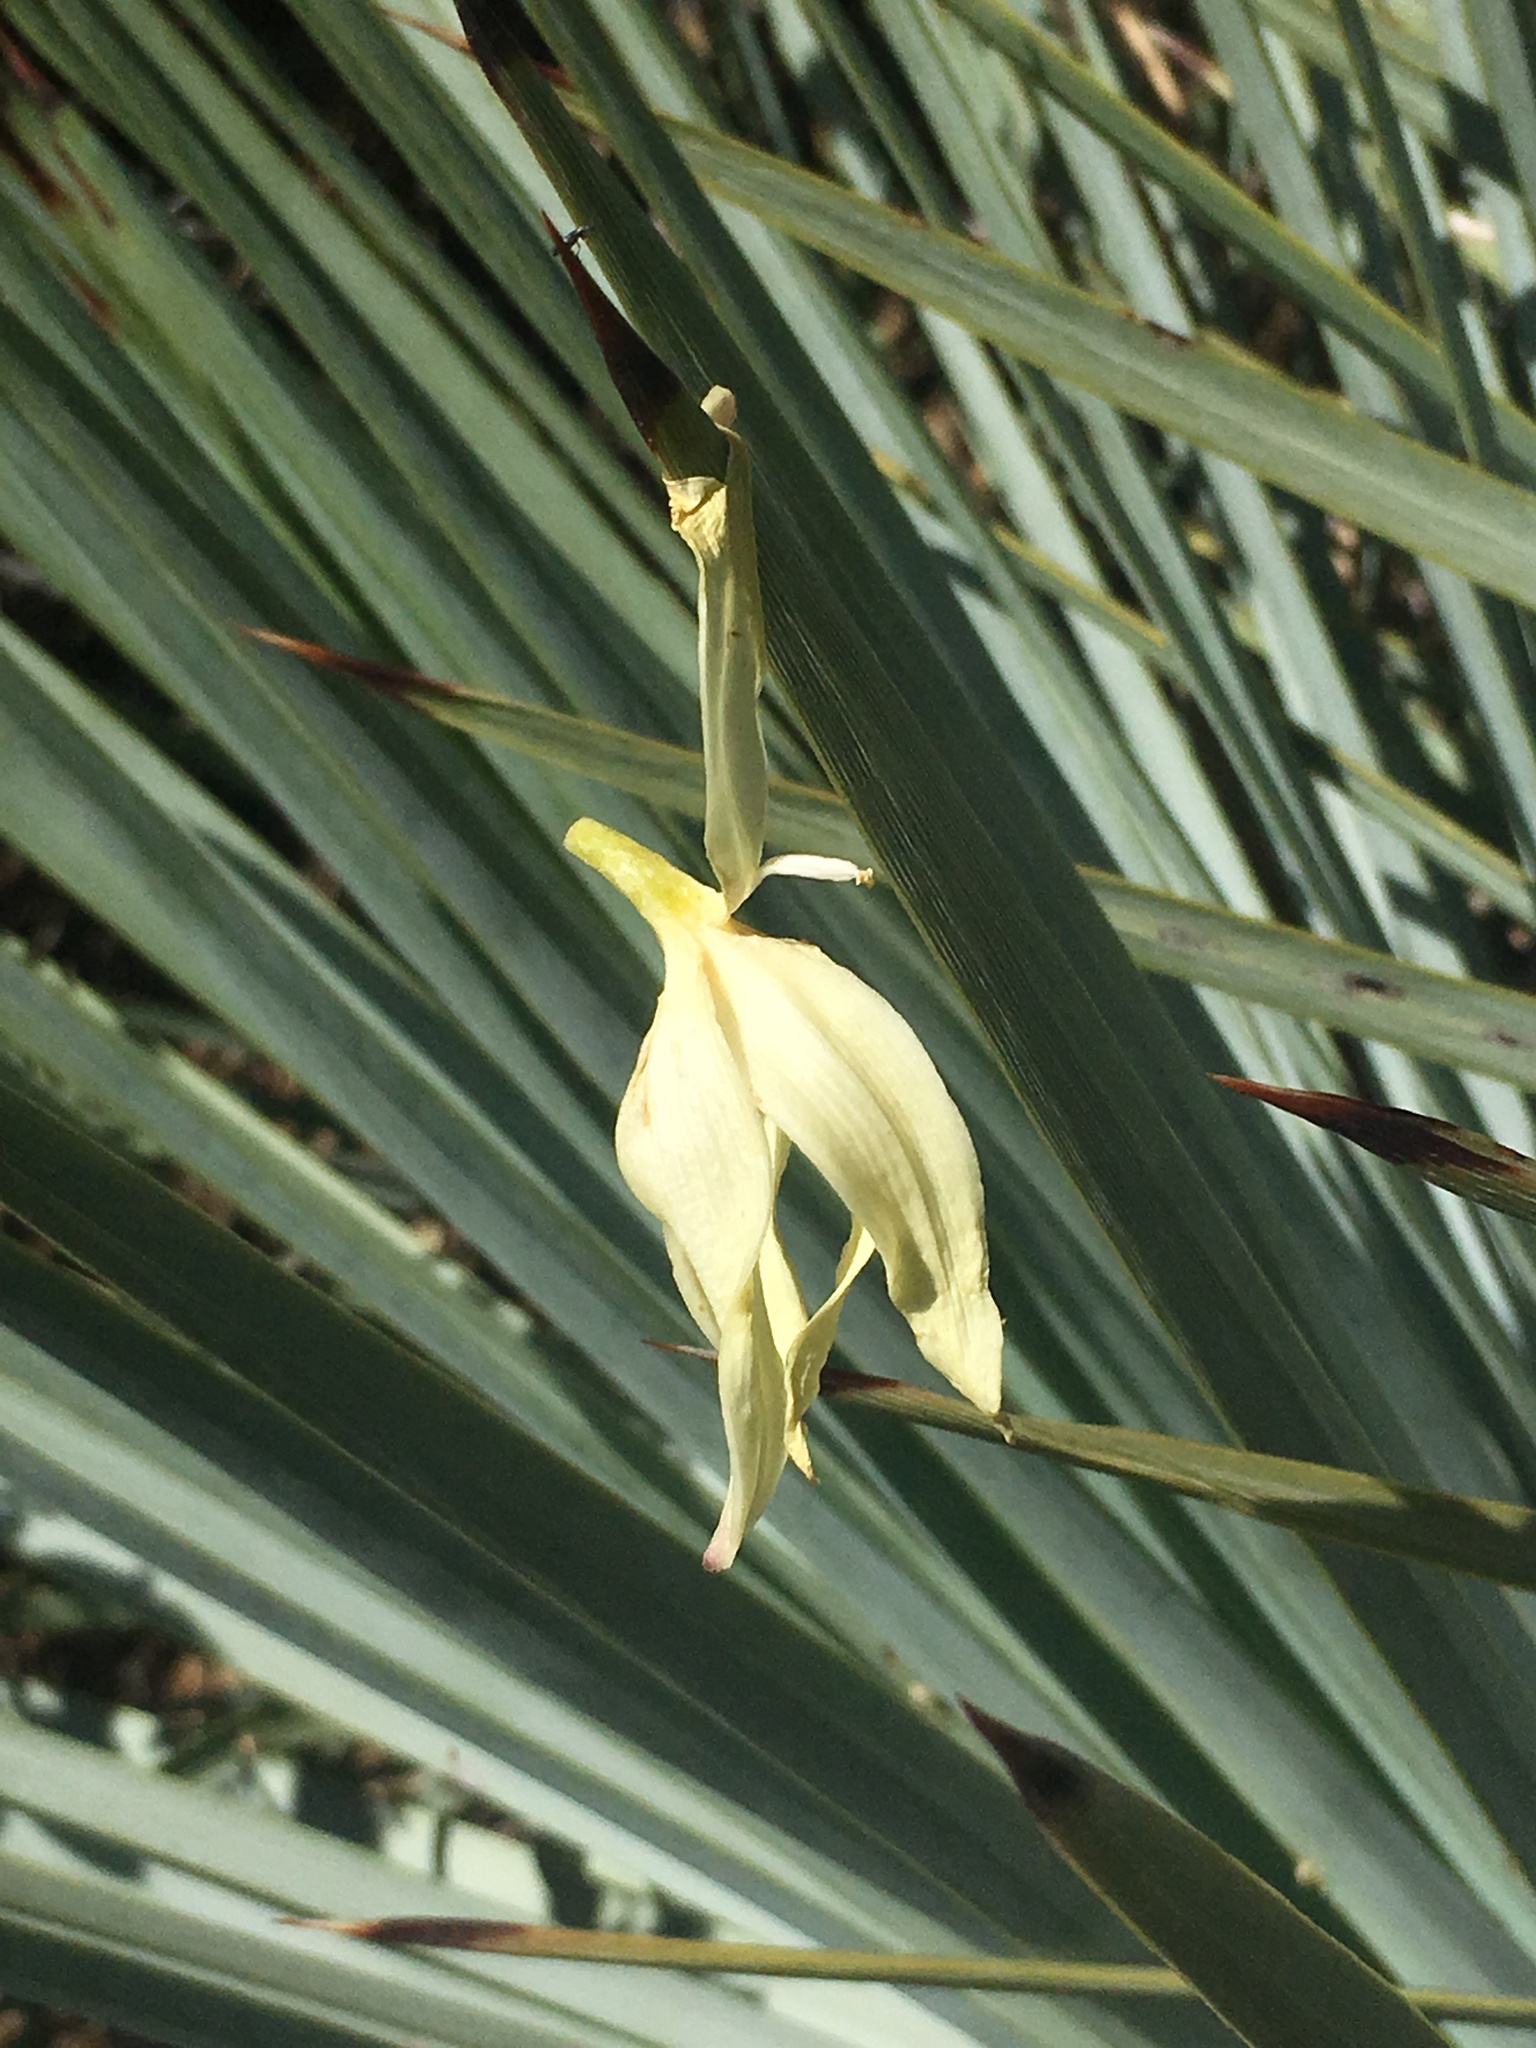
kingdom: Plantae
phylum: Tracheophyta
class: Liliopsida
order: Asparagales
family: Asparagaceae
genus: Hesperoyucca
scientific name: Hesperoyucca whipplei
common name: Our lord's-candle
